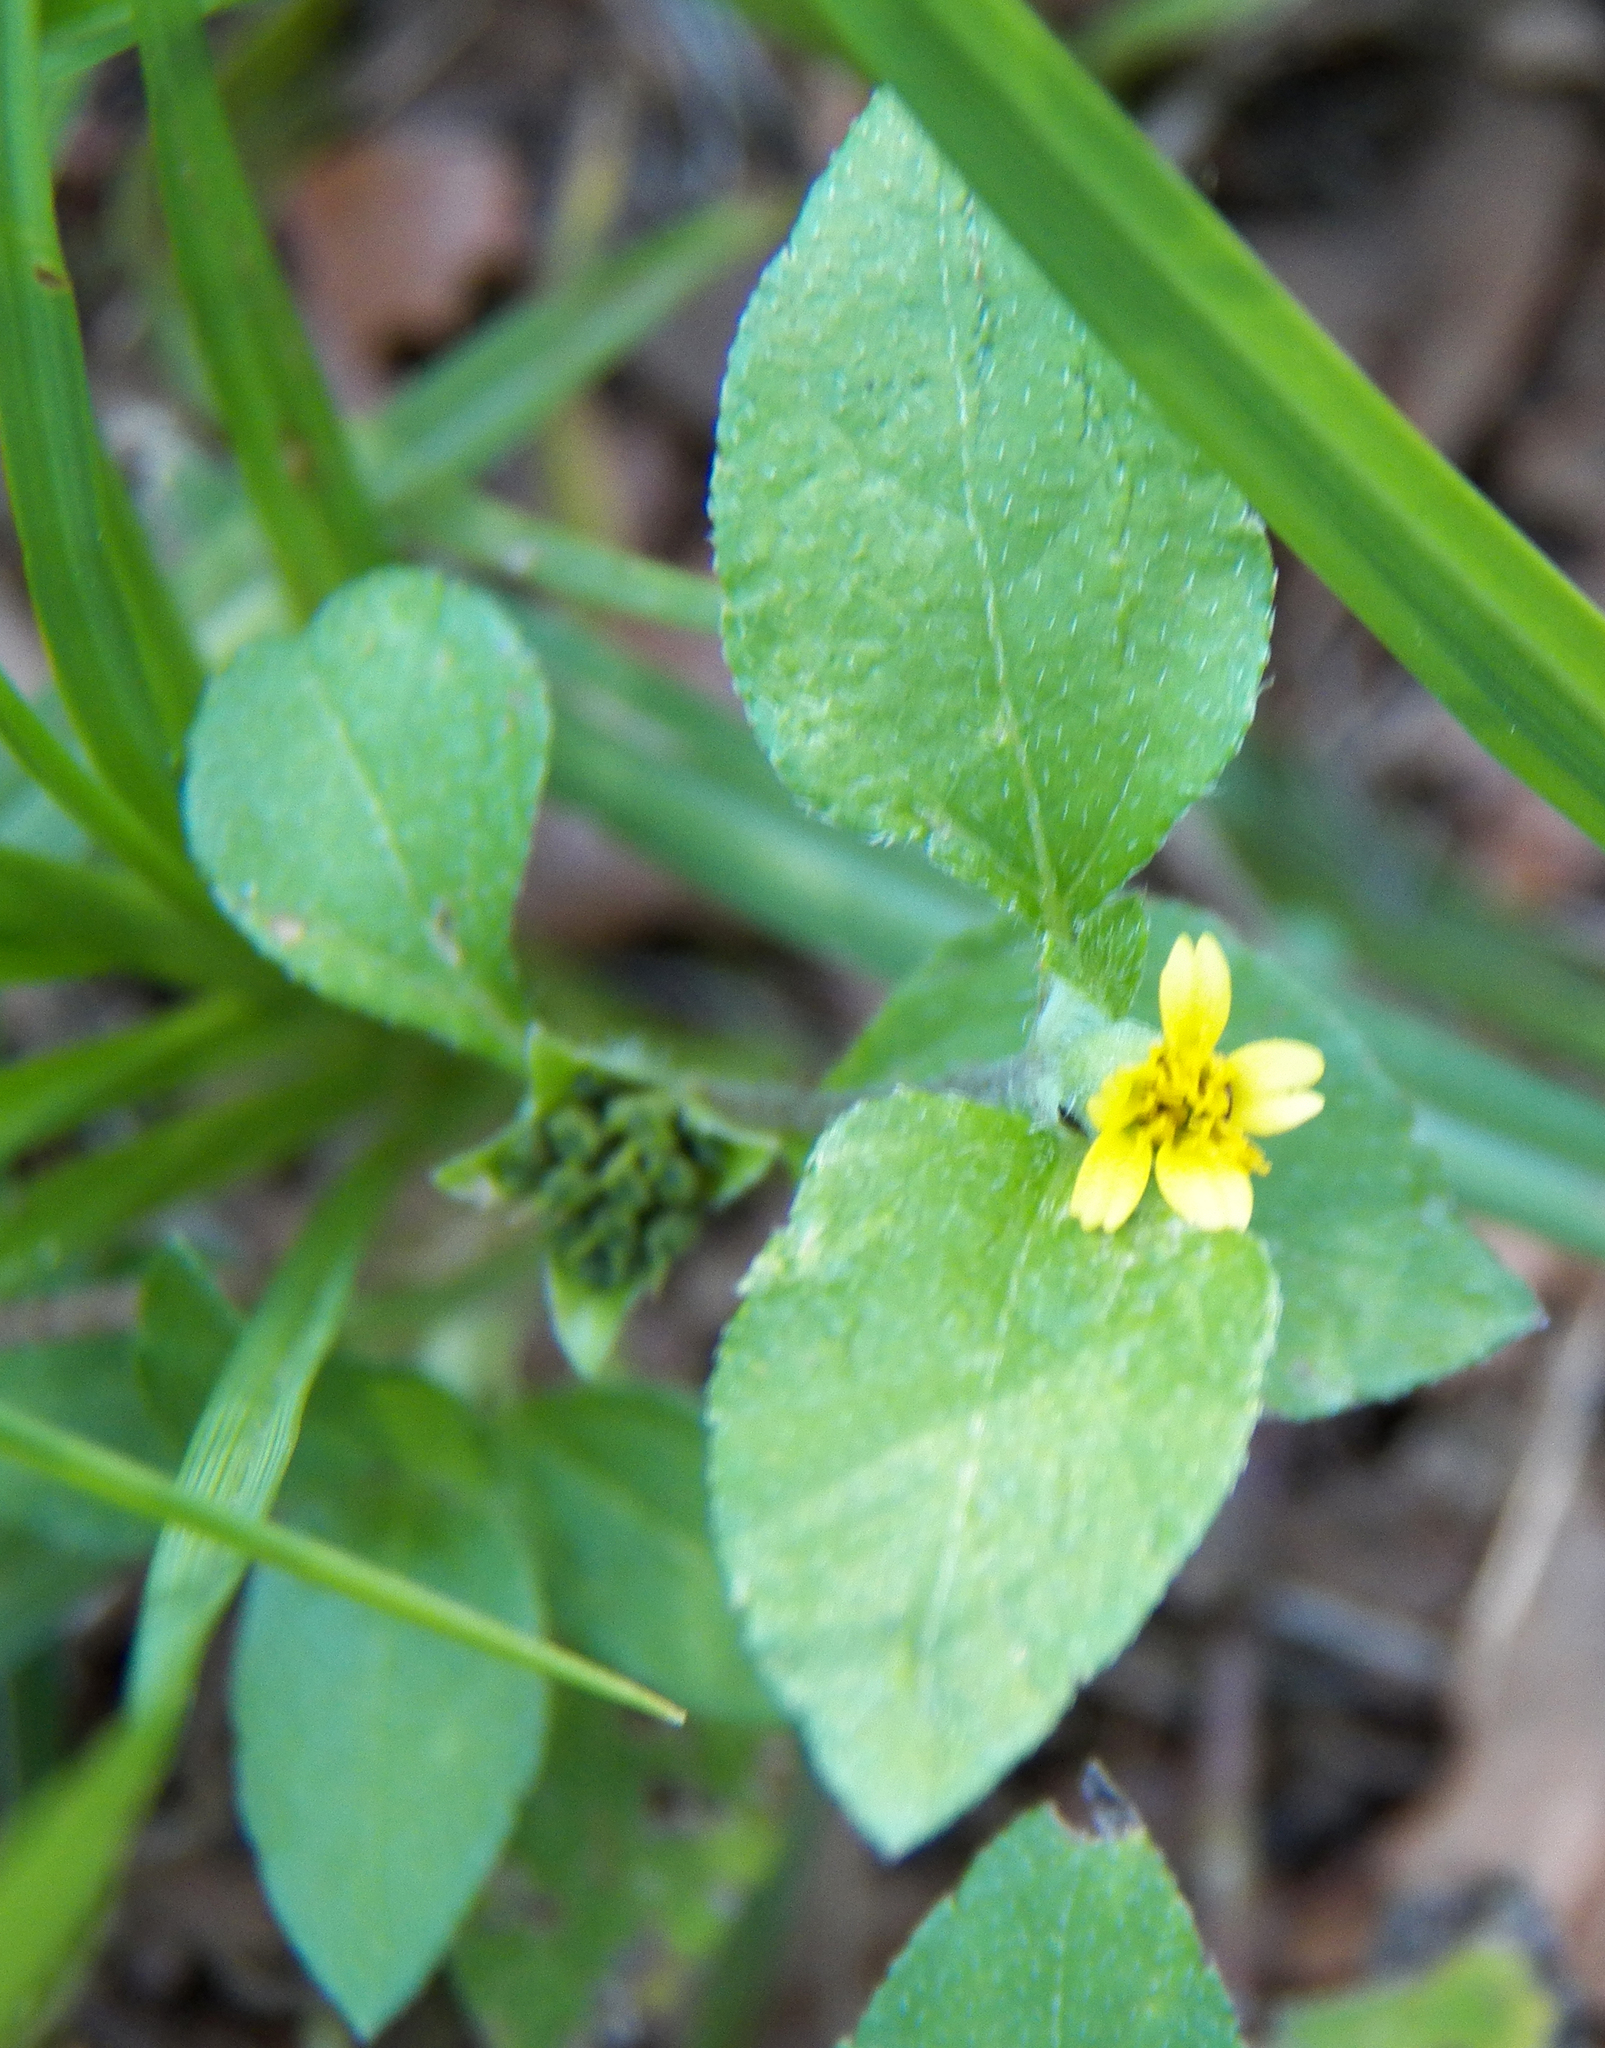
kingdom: Plantae
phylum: Tracheophyta
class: Magnoliopsida
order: Asterales
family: Asteraceae
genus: Calyptocarpus
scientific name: Calyptocarpus vialis
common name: Straggler daisy
